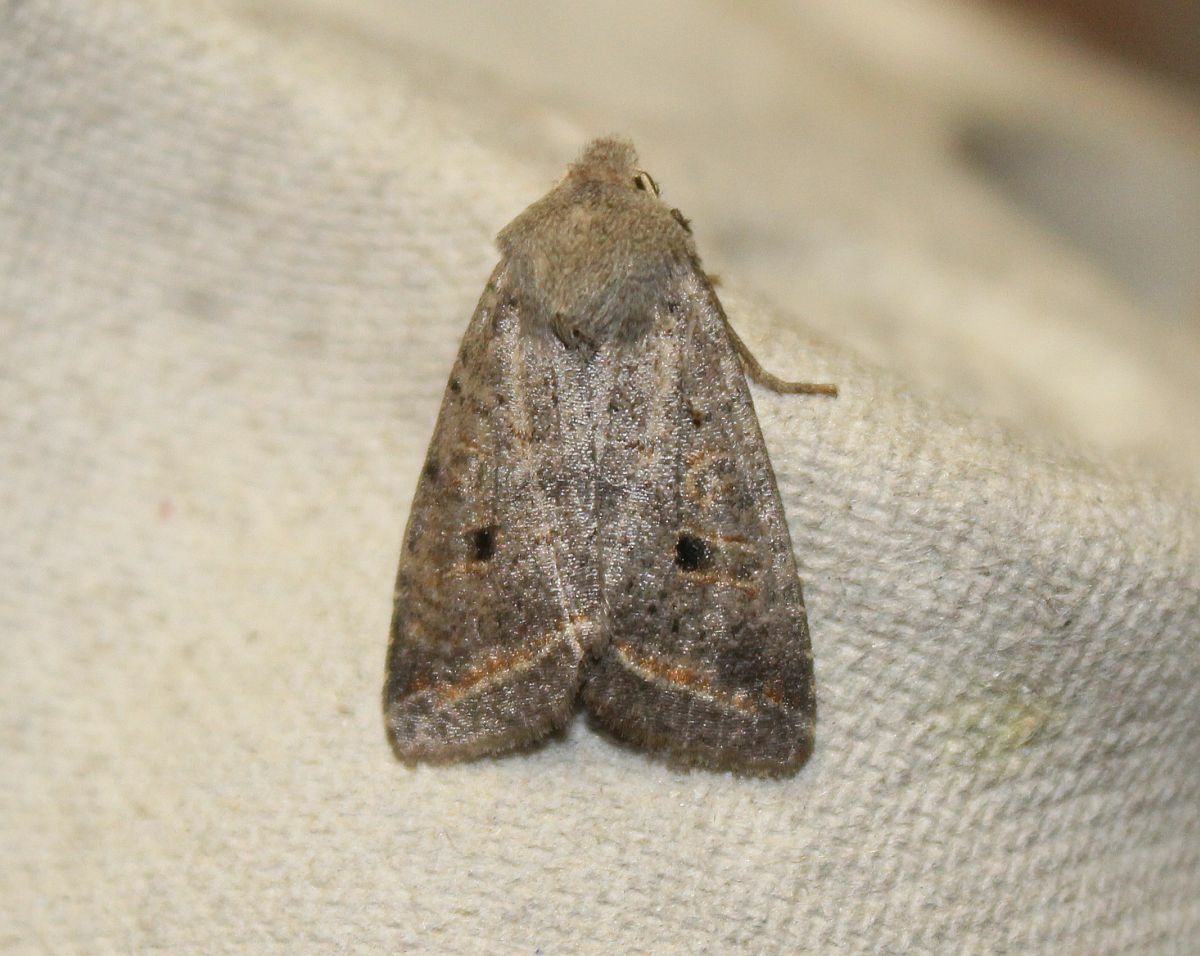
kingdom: Animalia
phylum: Arthropoda
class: Insecta
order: Lepidoptera
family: Noctuidae
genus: Agrochola
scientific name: Agrochola lota
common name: Red-line quaker
